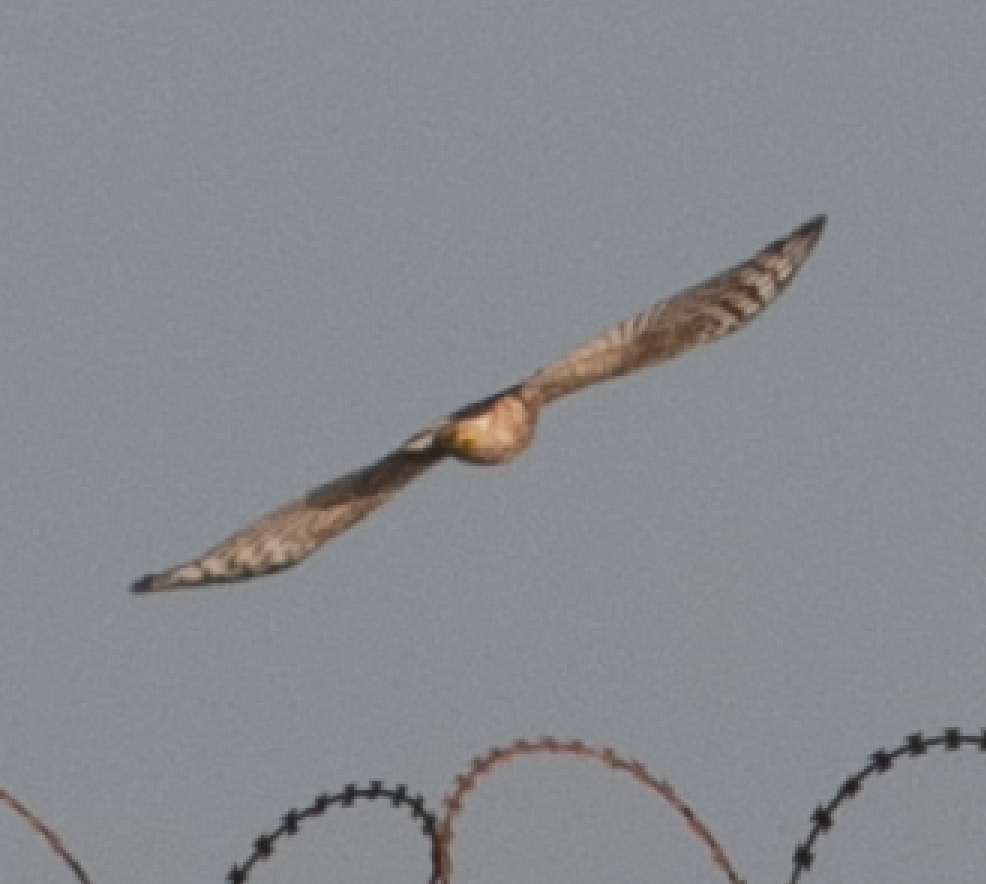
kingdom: Animalia
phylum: Chordata
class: Aves
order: Accipitriformes
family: Accipitridae
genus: Accipiter
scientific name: Accipiter nisus
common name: Eurasian sparrowhawk
